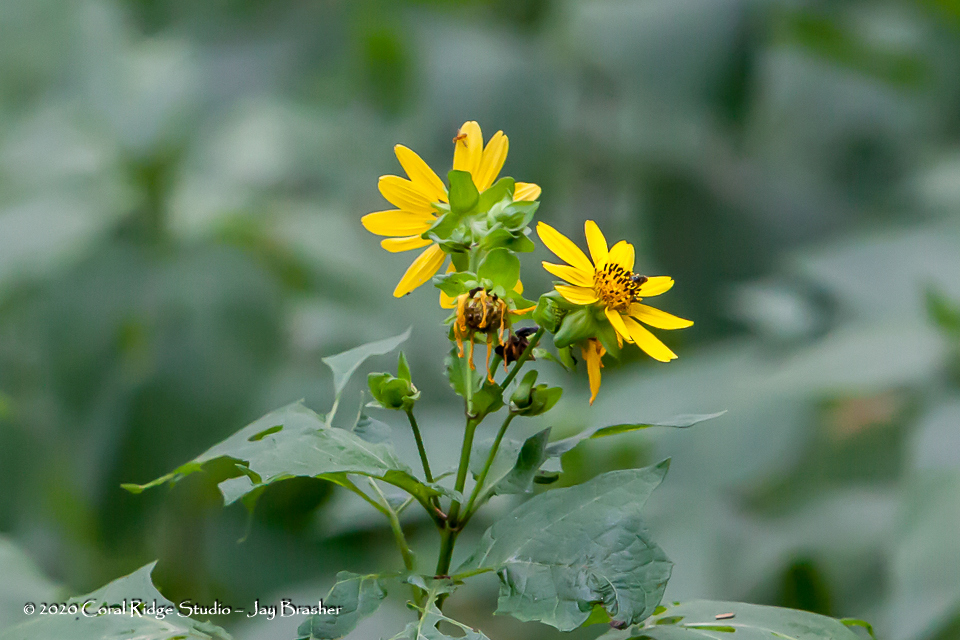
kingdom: Plantae
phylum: Tracheophyta
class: Magnoliopsida
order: Asterales
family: Asteraceae
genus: Smallanthus
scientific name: Smallanthus uvedalia
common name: Bear's-foot
